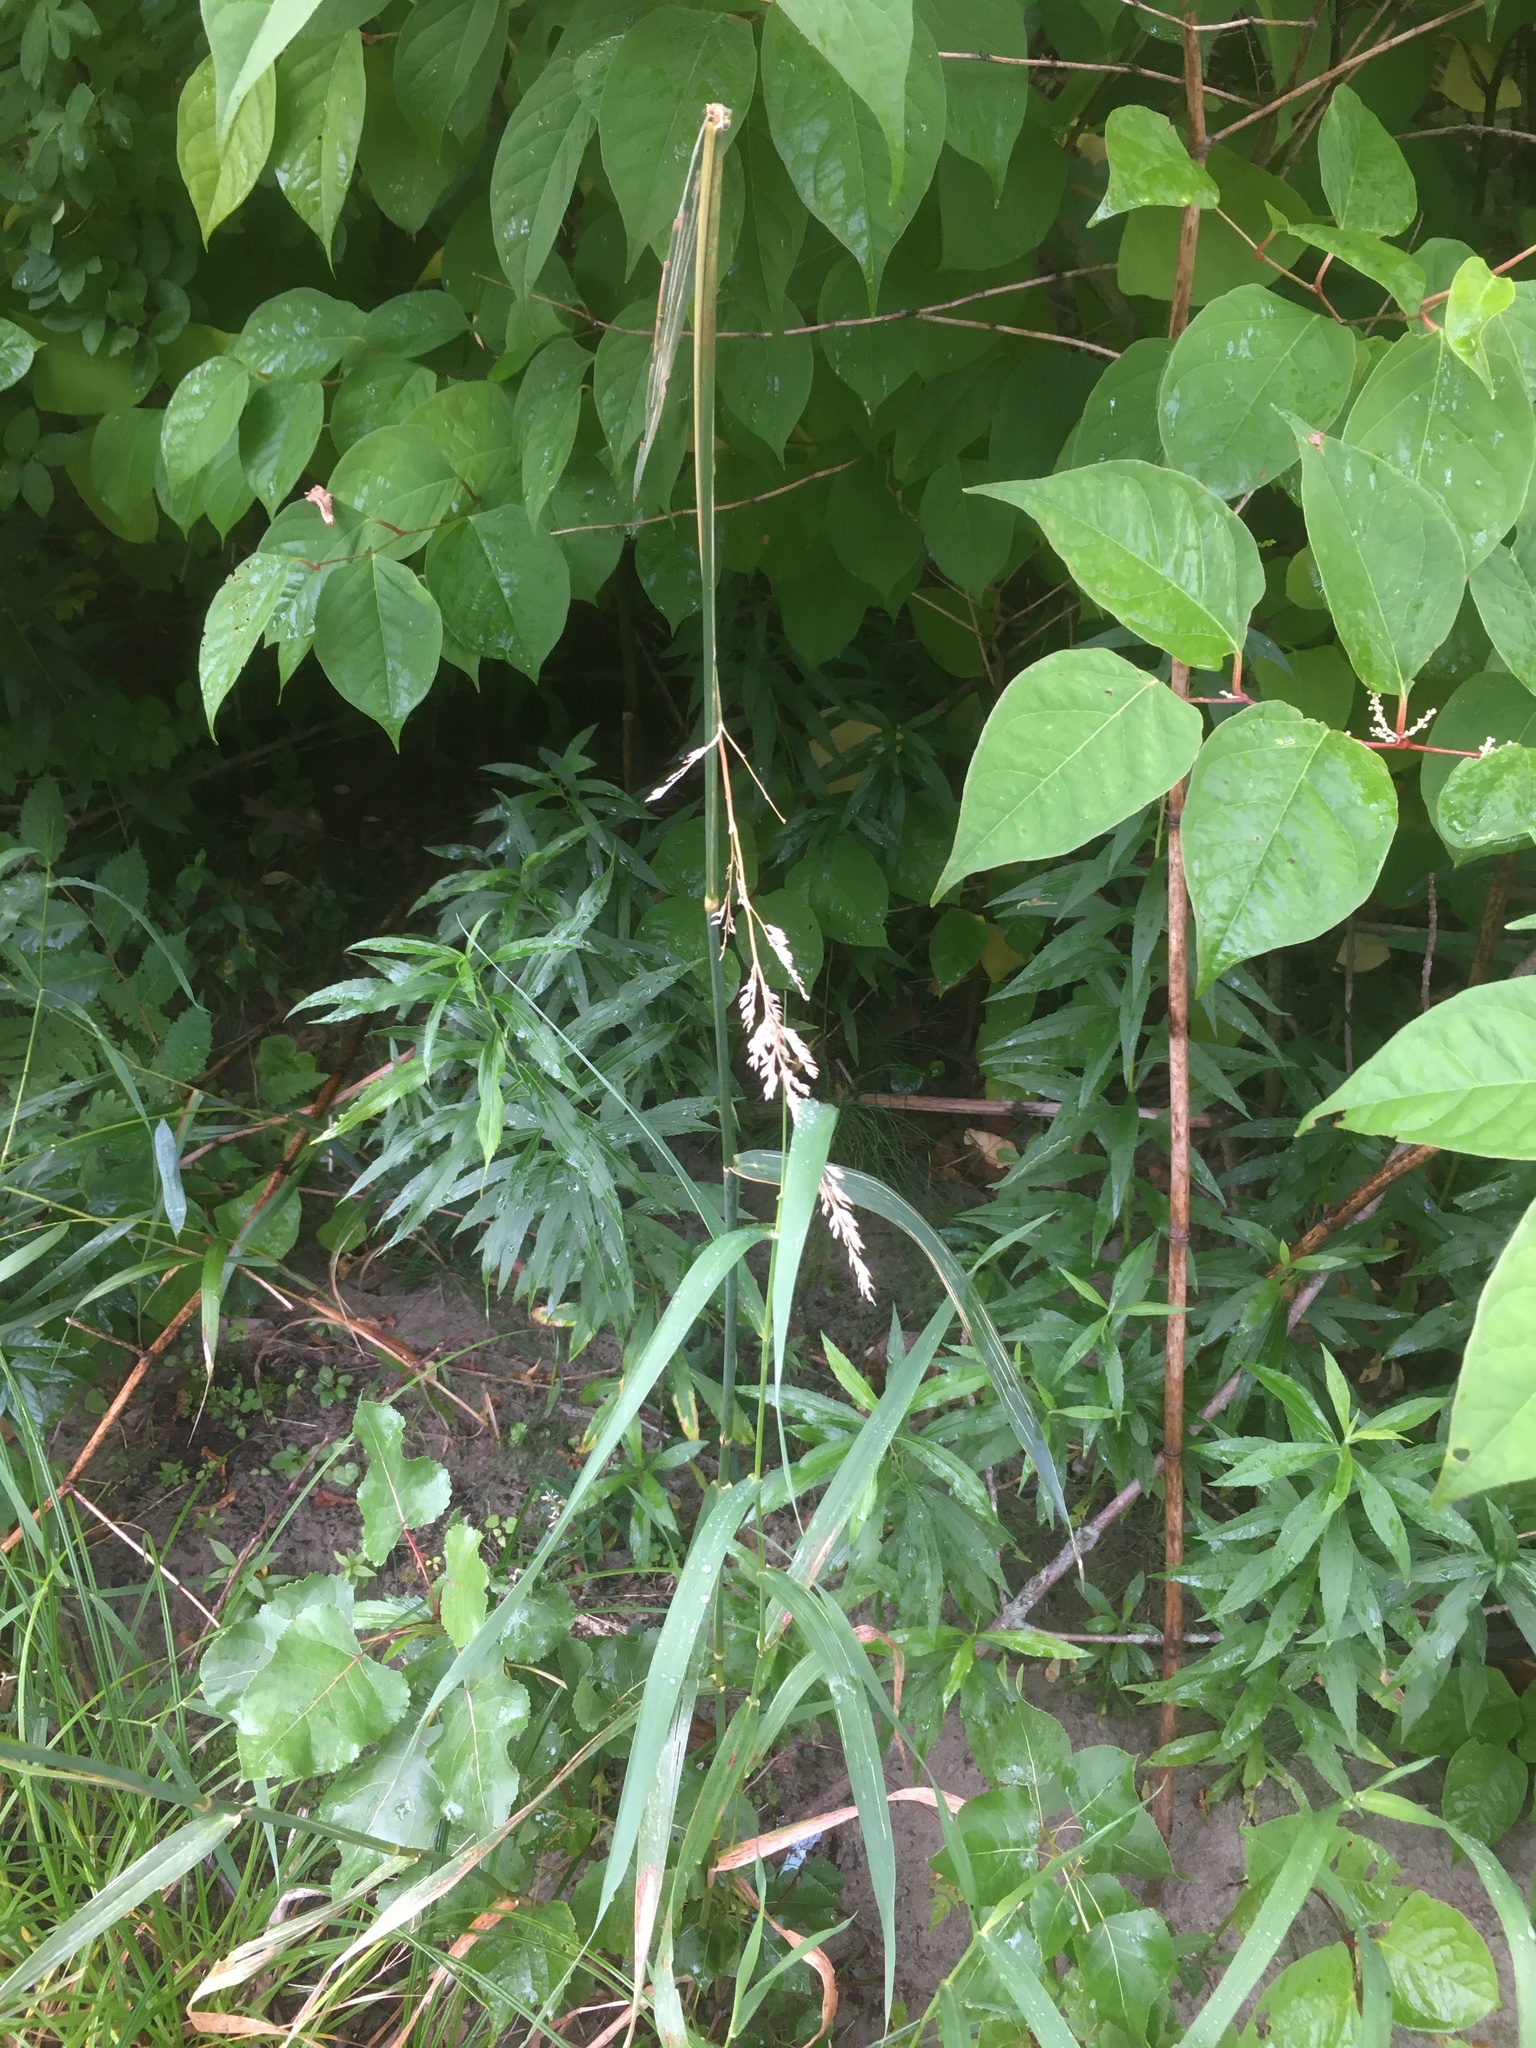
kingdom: Plantae
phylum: Tracheophyta
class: Liliopsida
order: Poales
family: Poaceae
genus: Phalaris
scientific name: Phalaris arundinacea
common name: Reed canary-grass
